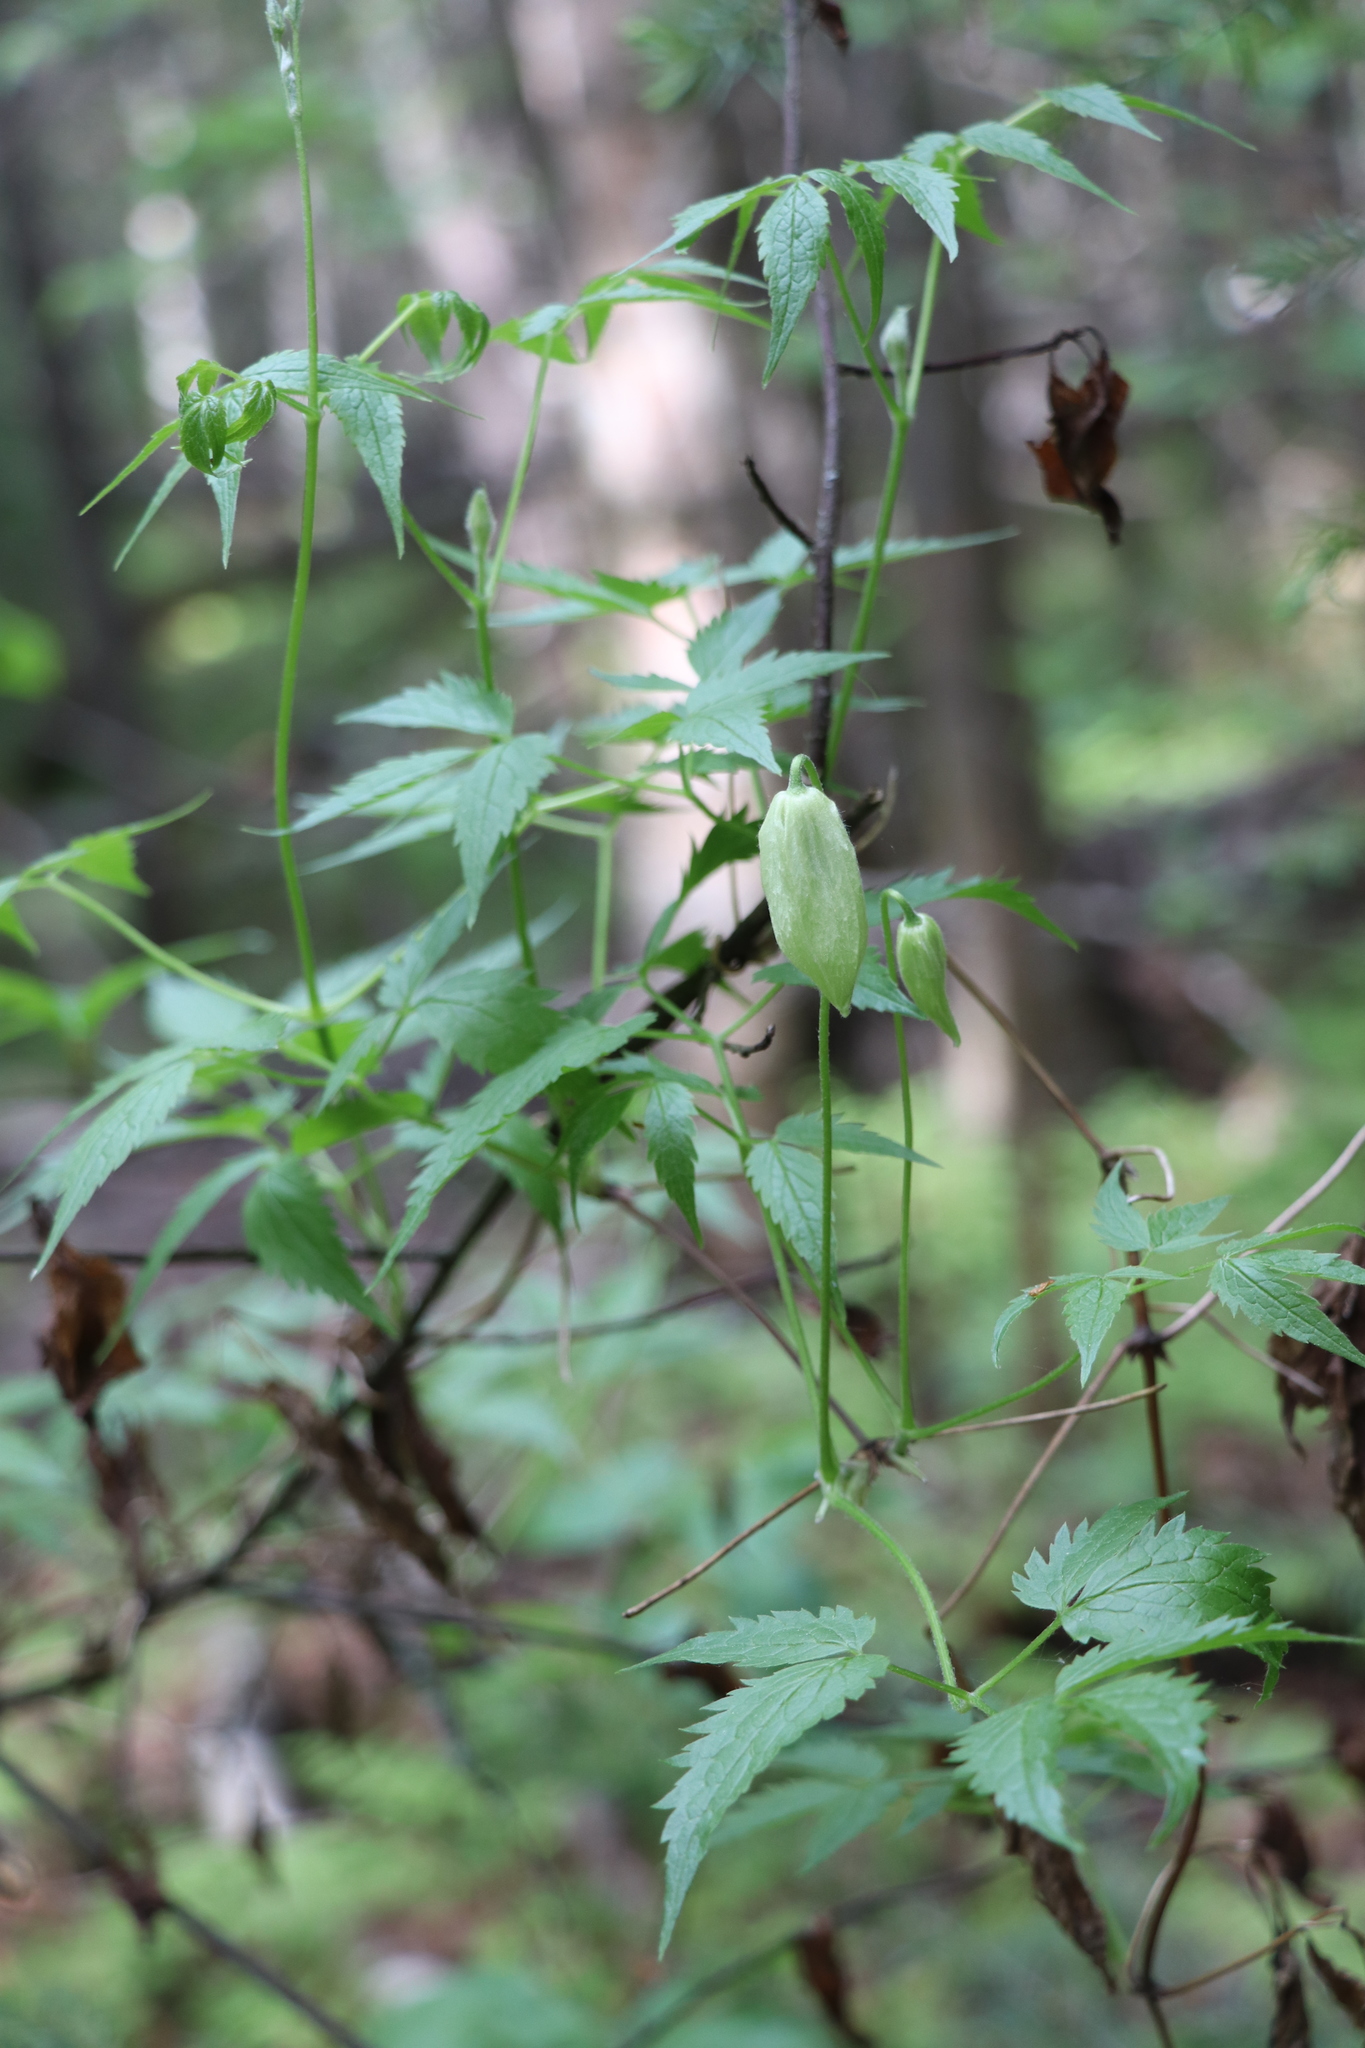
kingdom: Plantae
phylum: Tracheophyta
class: Magnoliopsida
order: Ranunculales
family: Ranunculaceae
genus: Clematis
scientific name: Clematis sibirica
